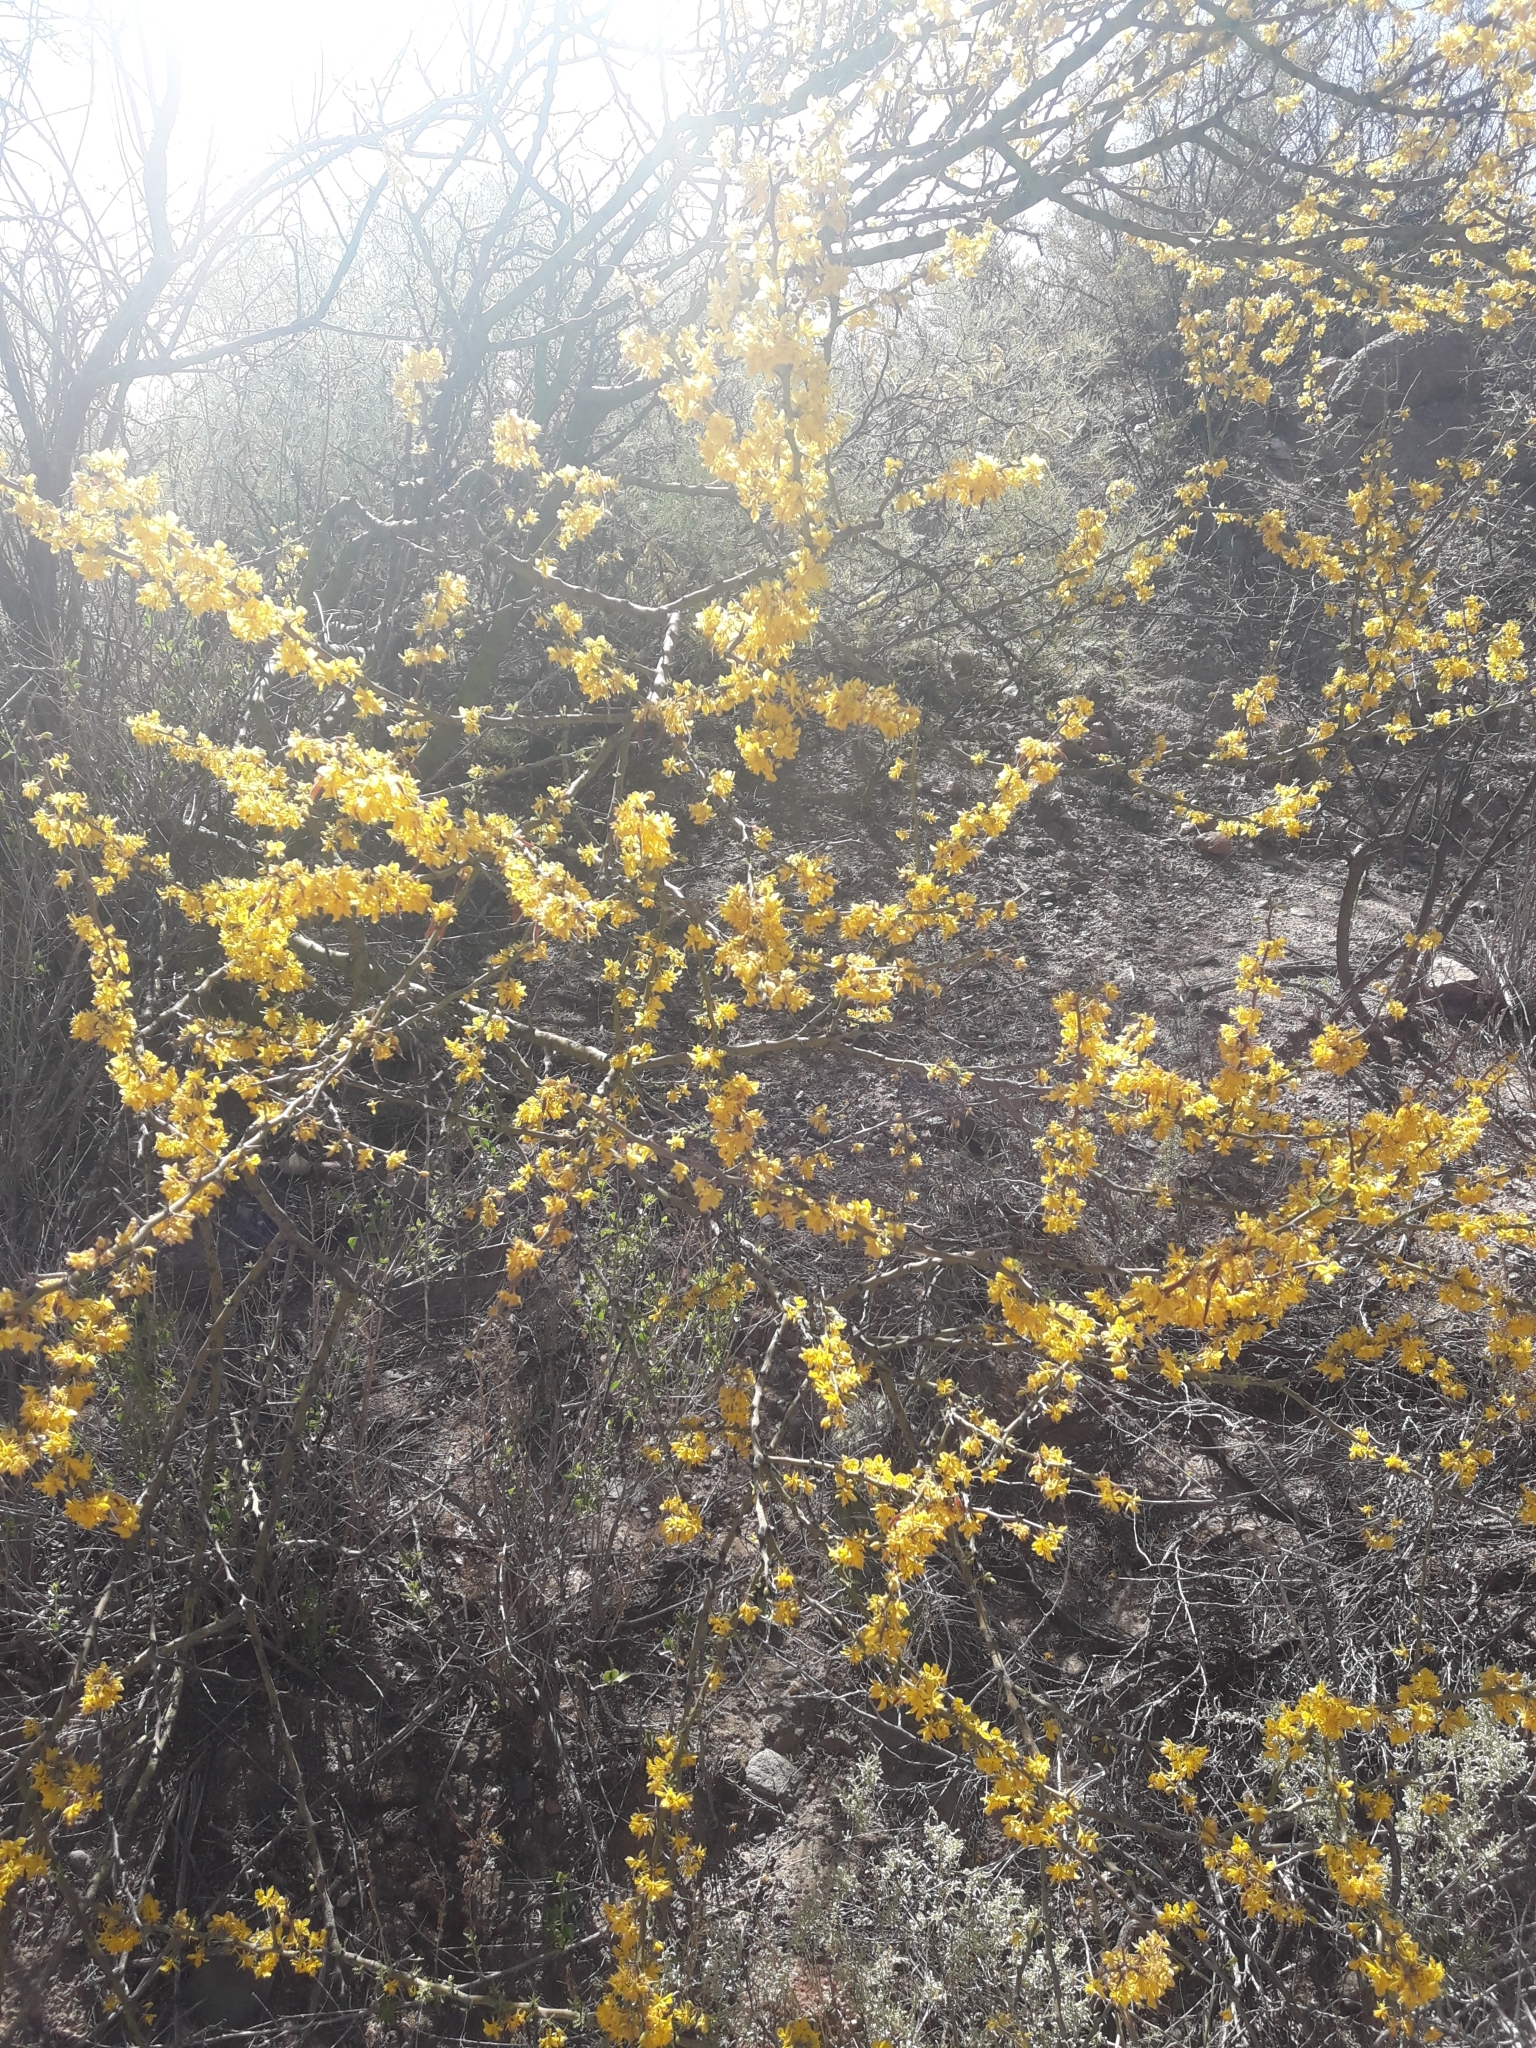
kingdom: Plantae
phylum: Tracheophyta
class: Magnoliopsida
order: Fabales
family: Fabaceae
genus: Parkinsonia
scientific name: Parkinsonia praecox
